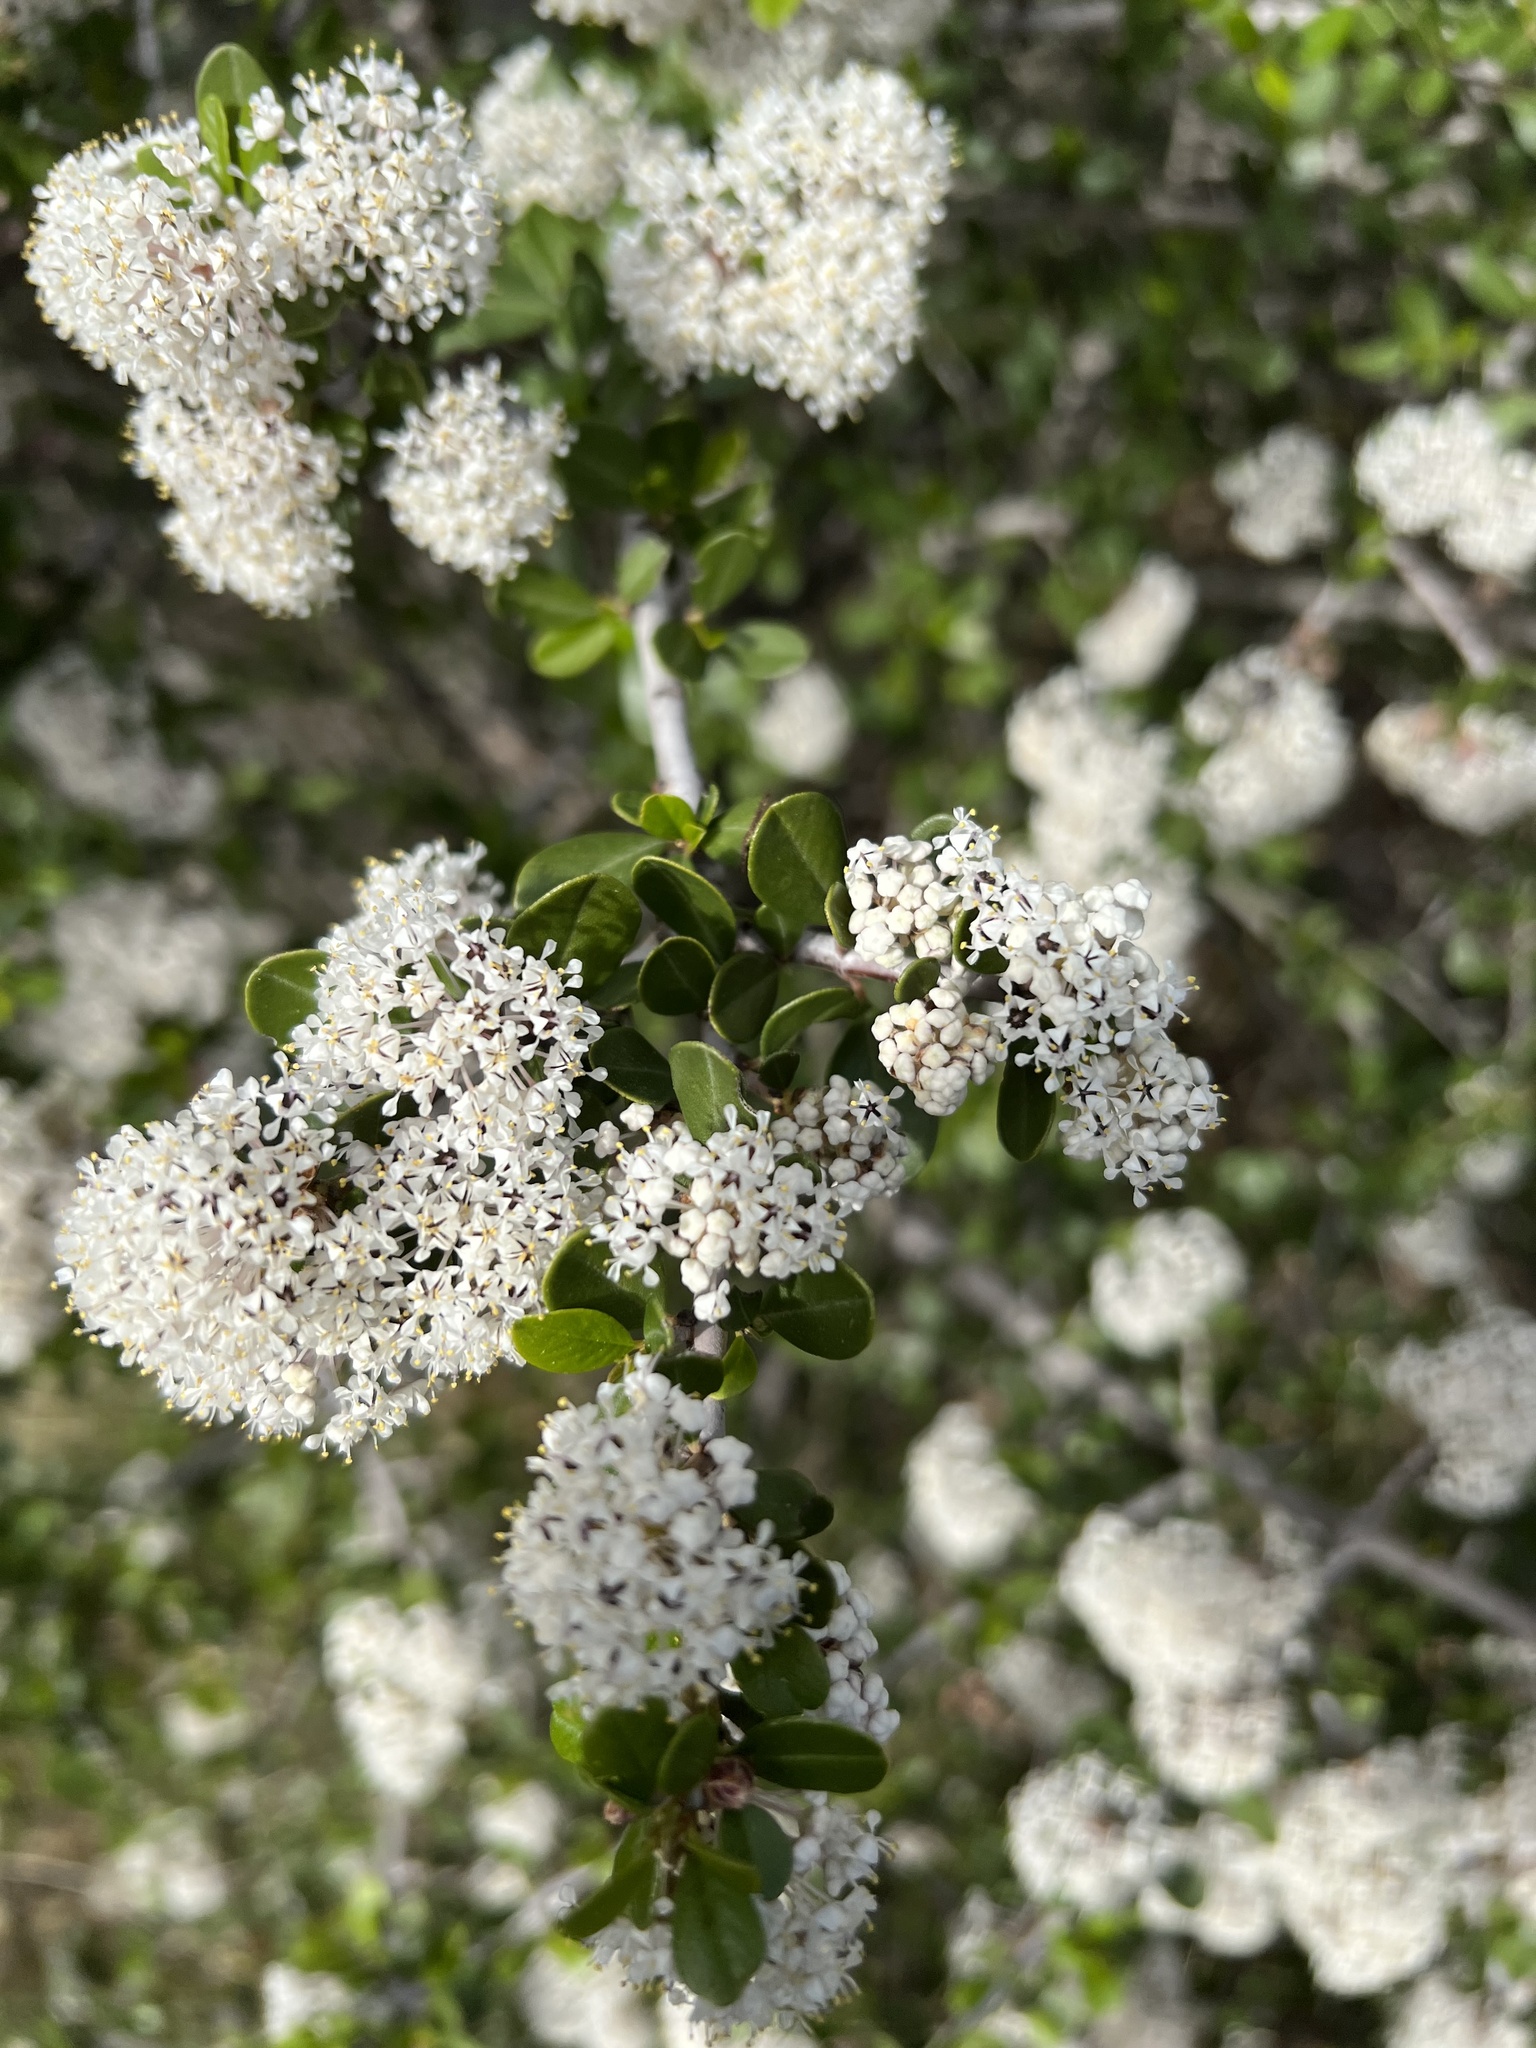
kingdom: Plantae
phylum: Tracheophyta
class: Magnoliopsida
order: Rosales
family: Rhamnaceae
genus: Ceanothus
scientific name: Ceanothus cuneatus
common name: Cuneate ceanothus
